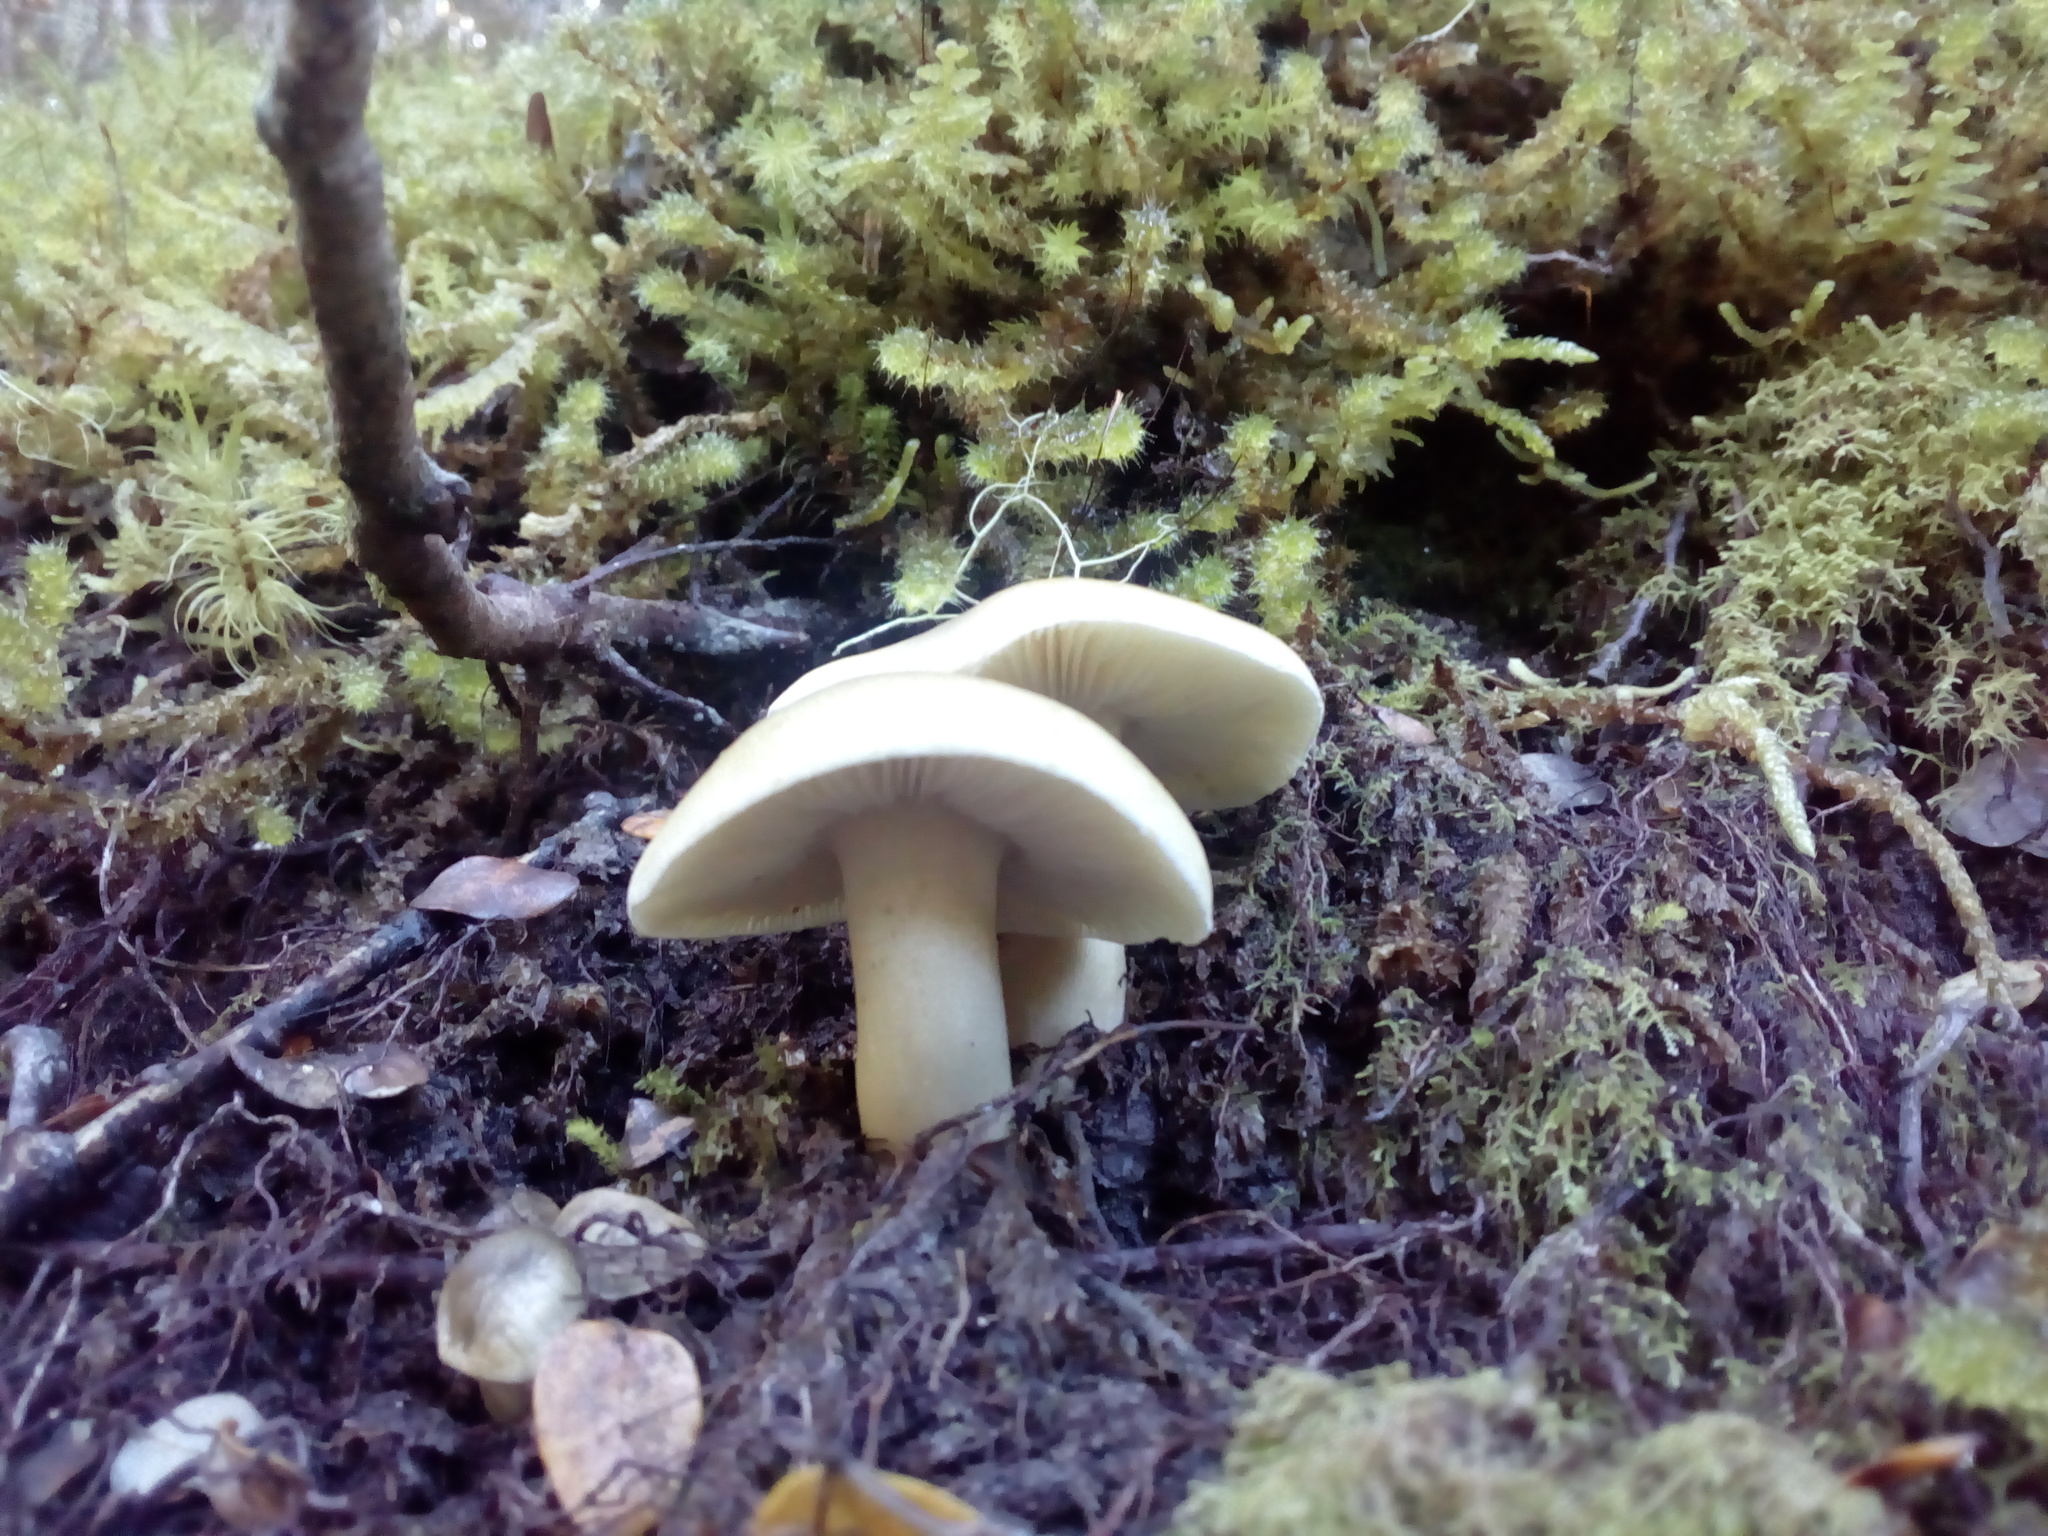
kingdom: Fungi
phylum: Basidiomycota
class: Agaricomycetes
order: Agaricales
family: Tricholomataceae
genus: Tricholoma
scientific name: Tricholoma viridiolivaceum
